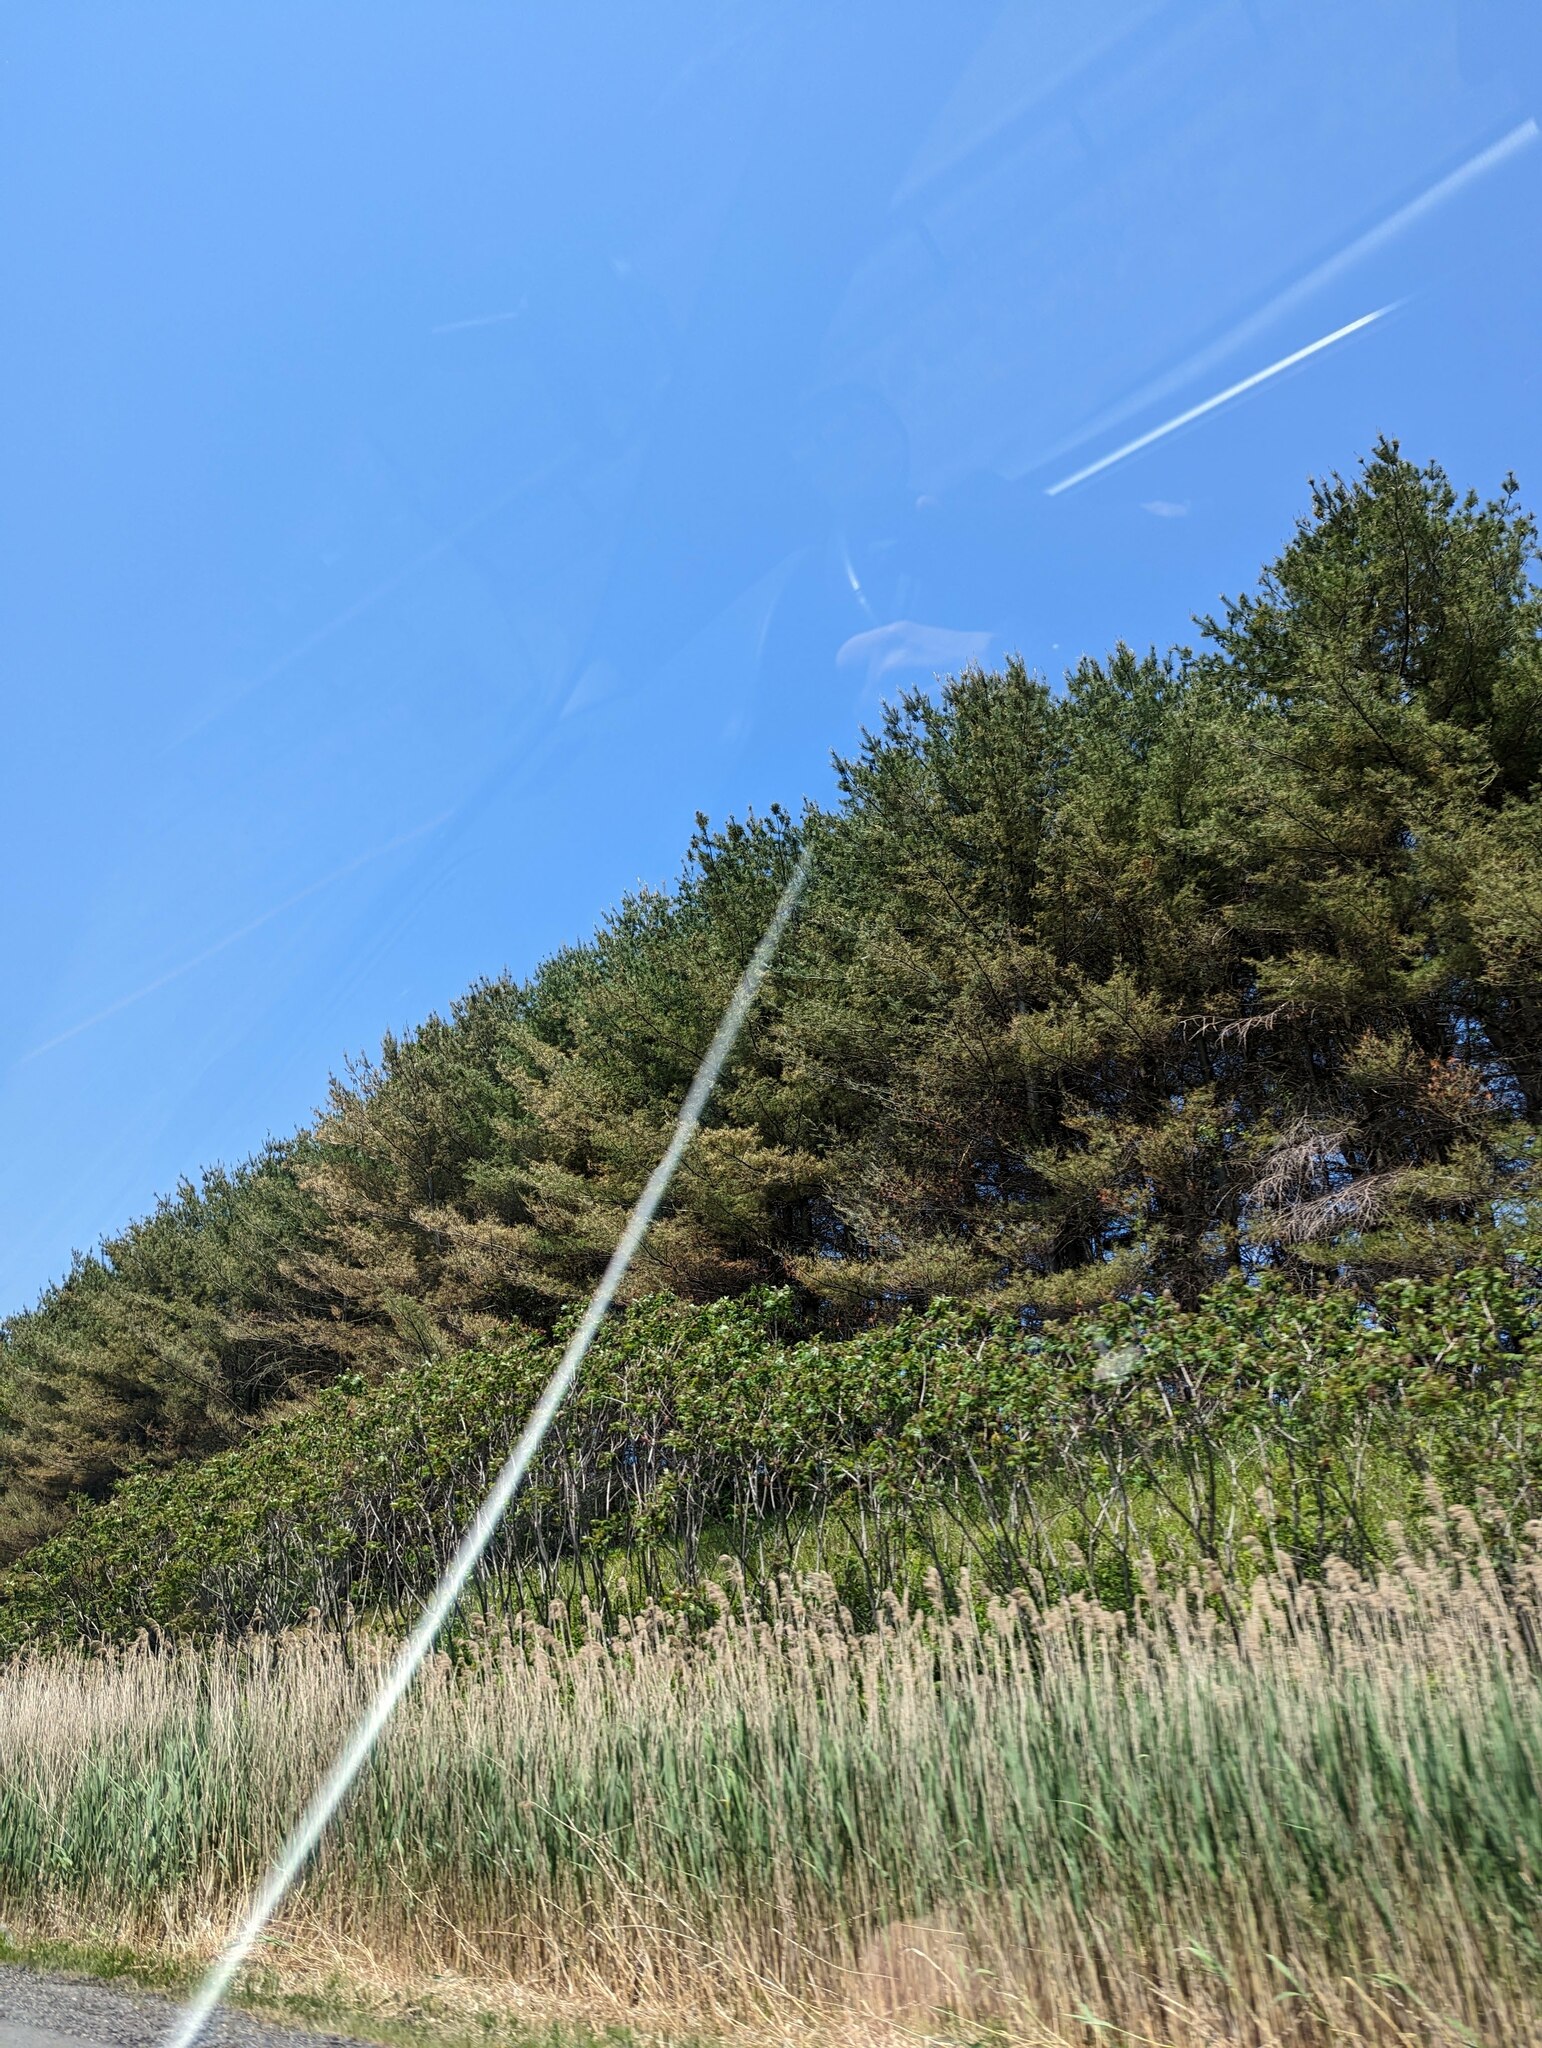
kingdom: Plantae
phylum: Tracheophyta
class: Liliopsida
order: Poales
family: Poaceae
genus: Phragmites
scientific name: Phragmites australis
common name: Common reed
